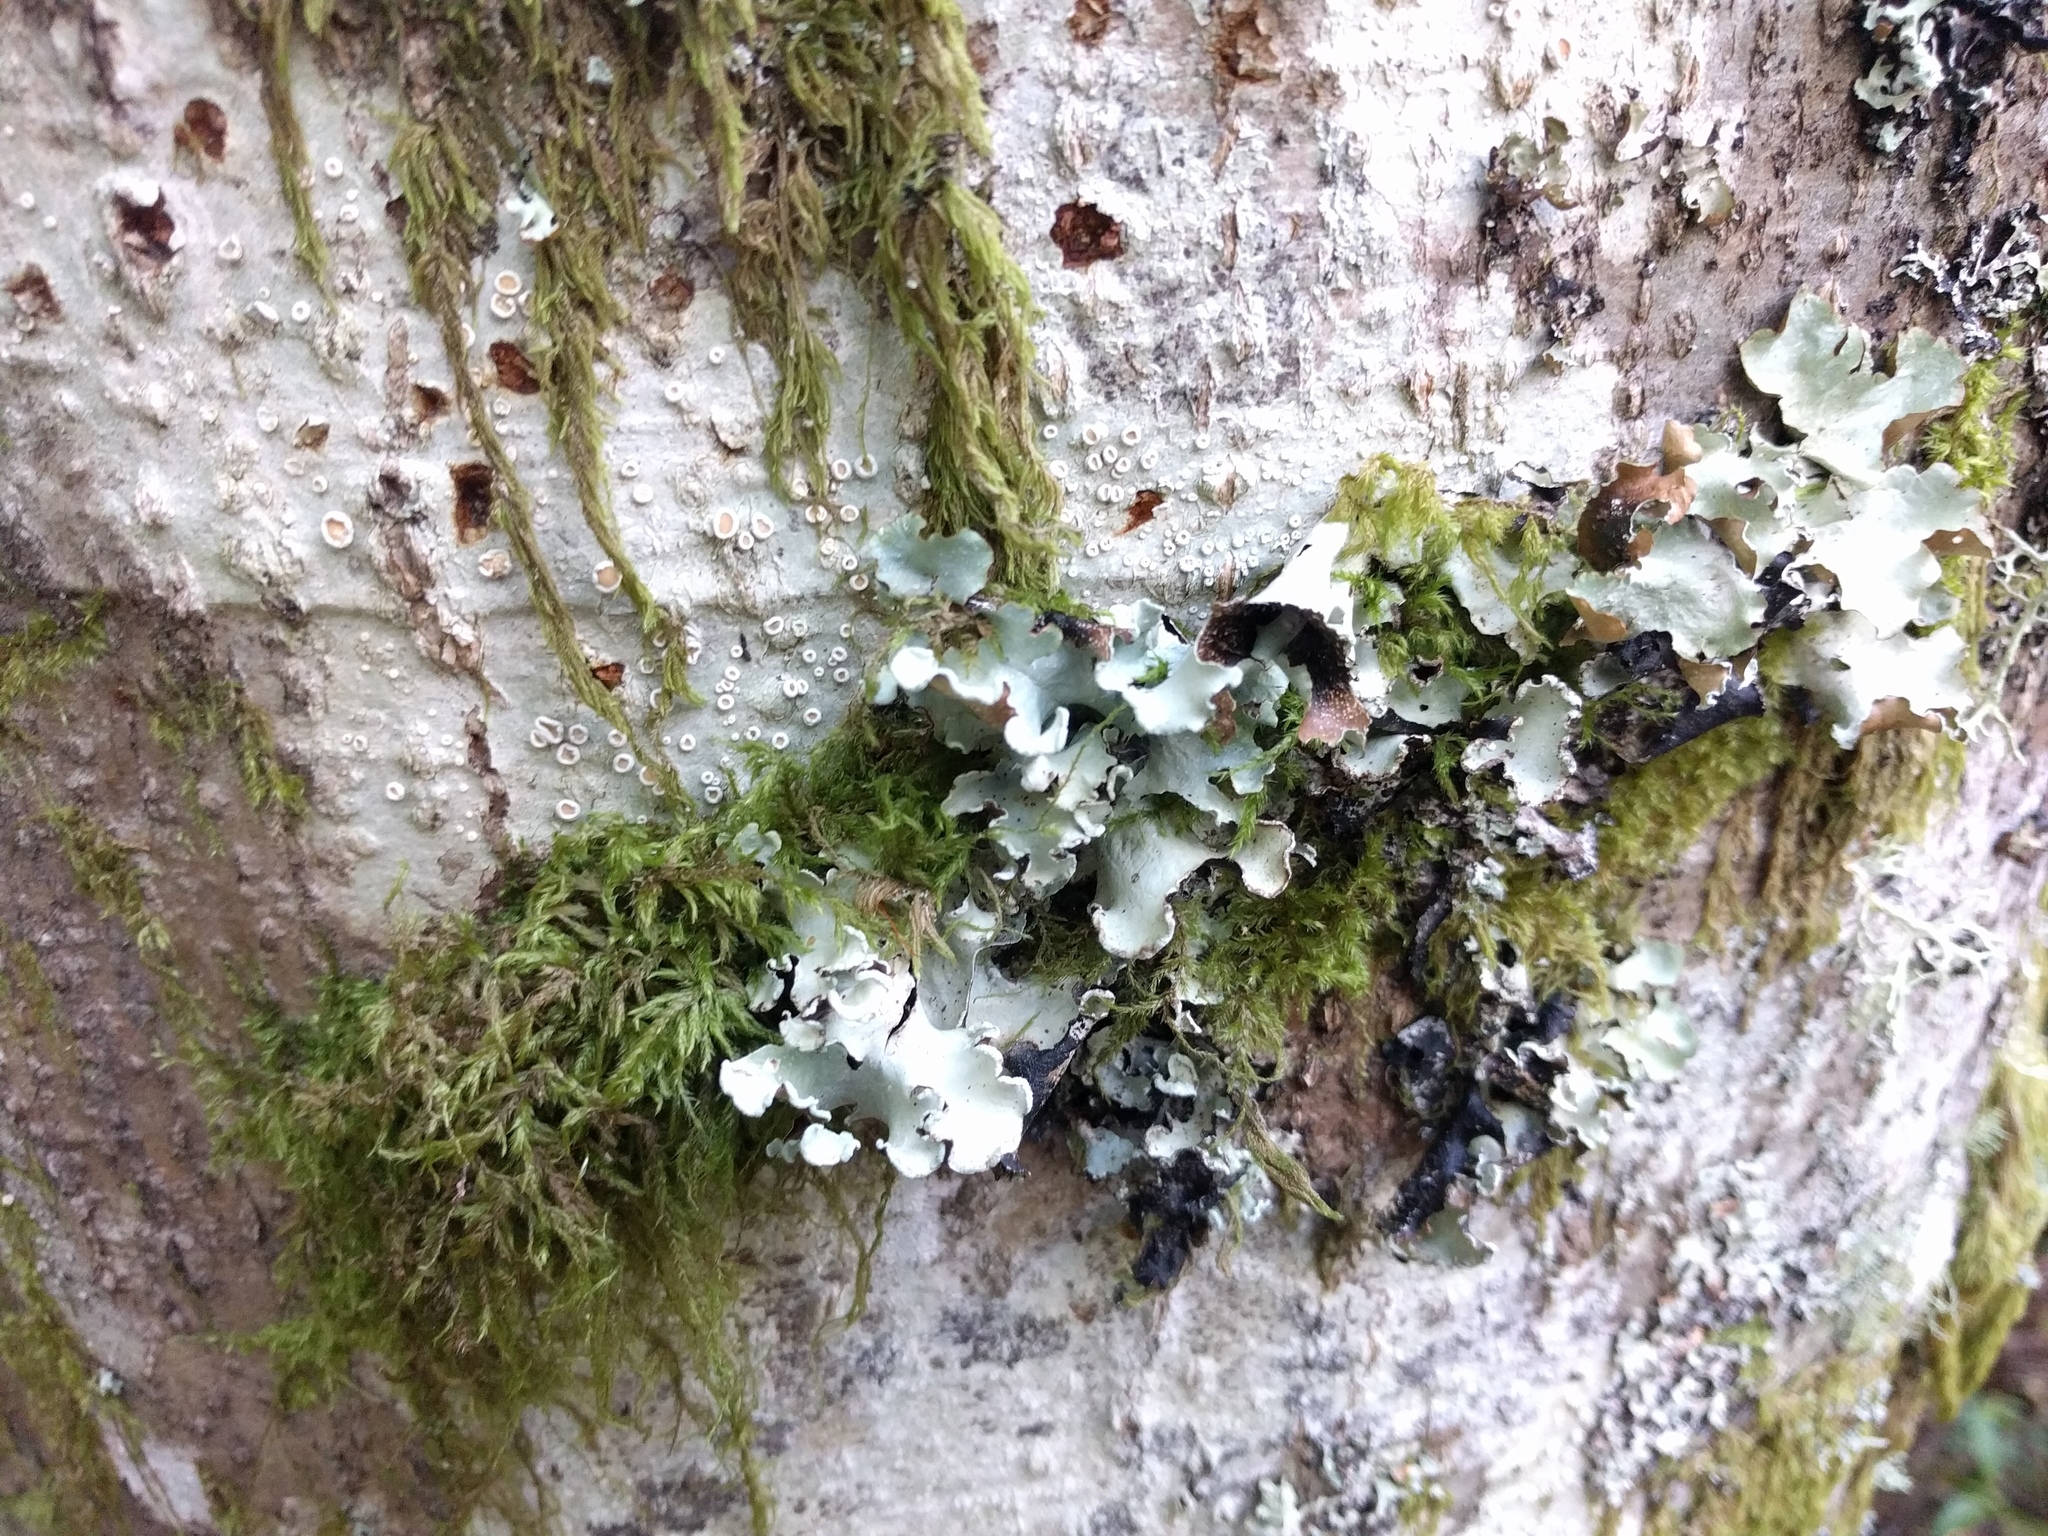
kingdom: Fungi
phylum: Ascomycota
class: Lecanoromycetes
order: Lecanorales
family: Parmeliaceae
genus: Cetrelia
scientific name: Cetrelia cetrarioides
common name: Speckled iceland lichen
